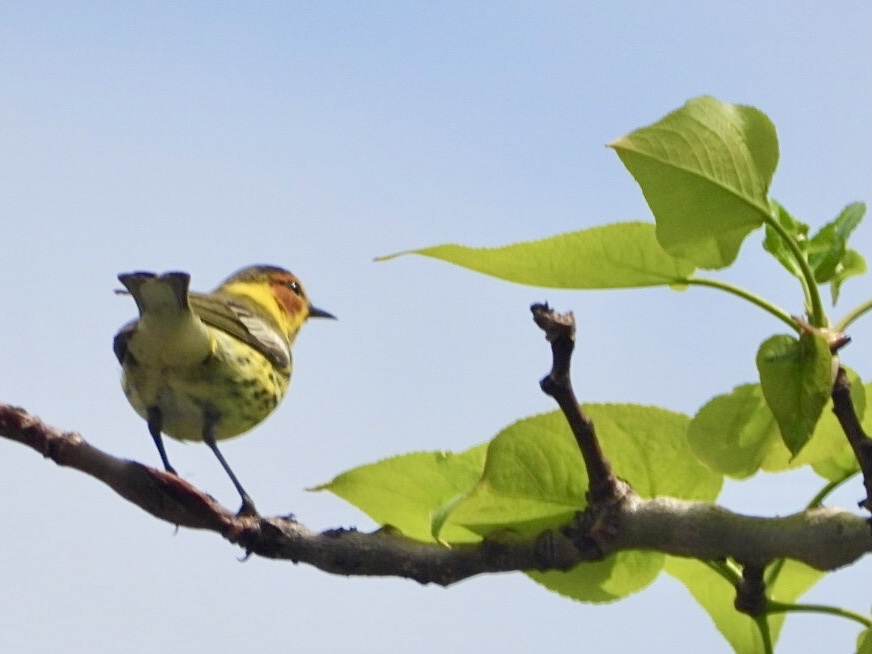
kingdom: Animalia
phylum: Chordata
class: Aves
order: Passeriformes
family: Parulidae
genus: Setophaga
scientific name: Setophaga tigrina
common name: Cape may warbler
